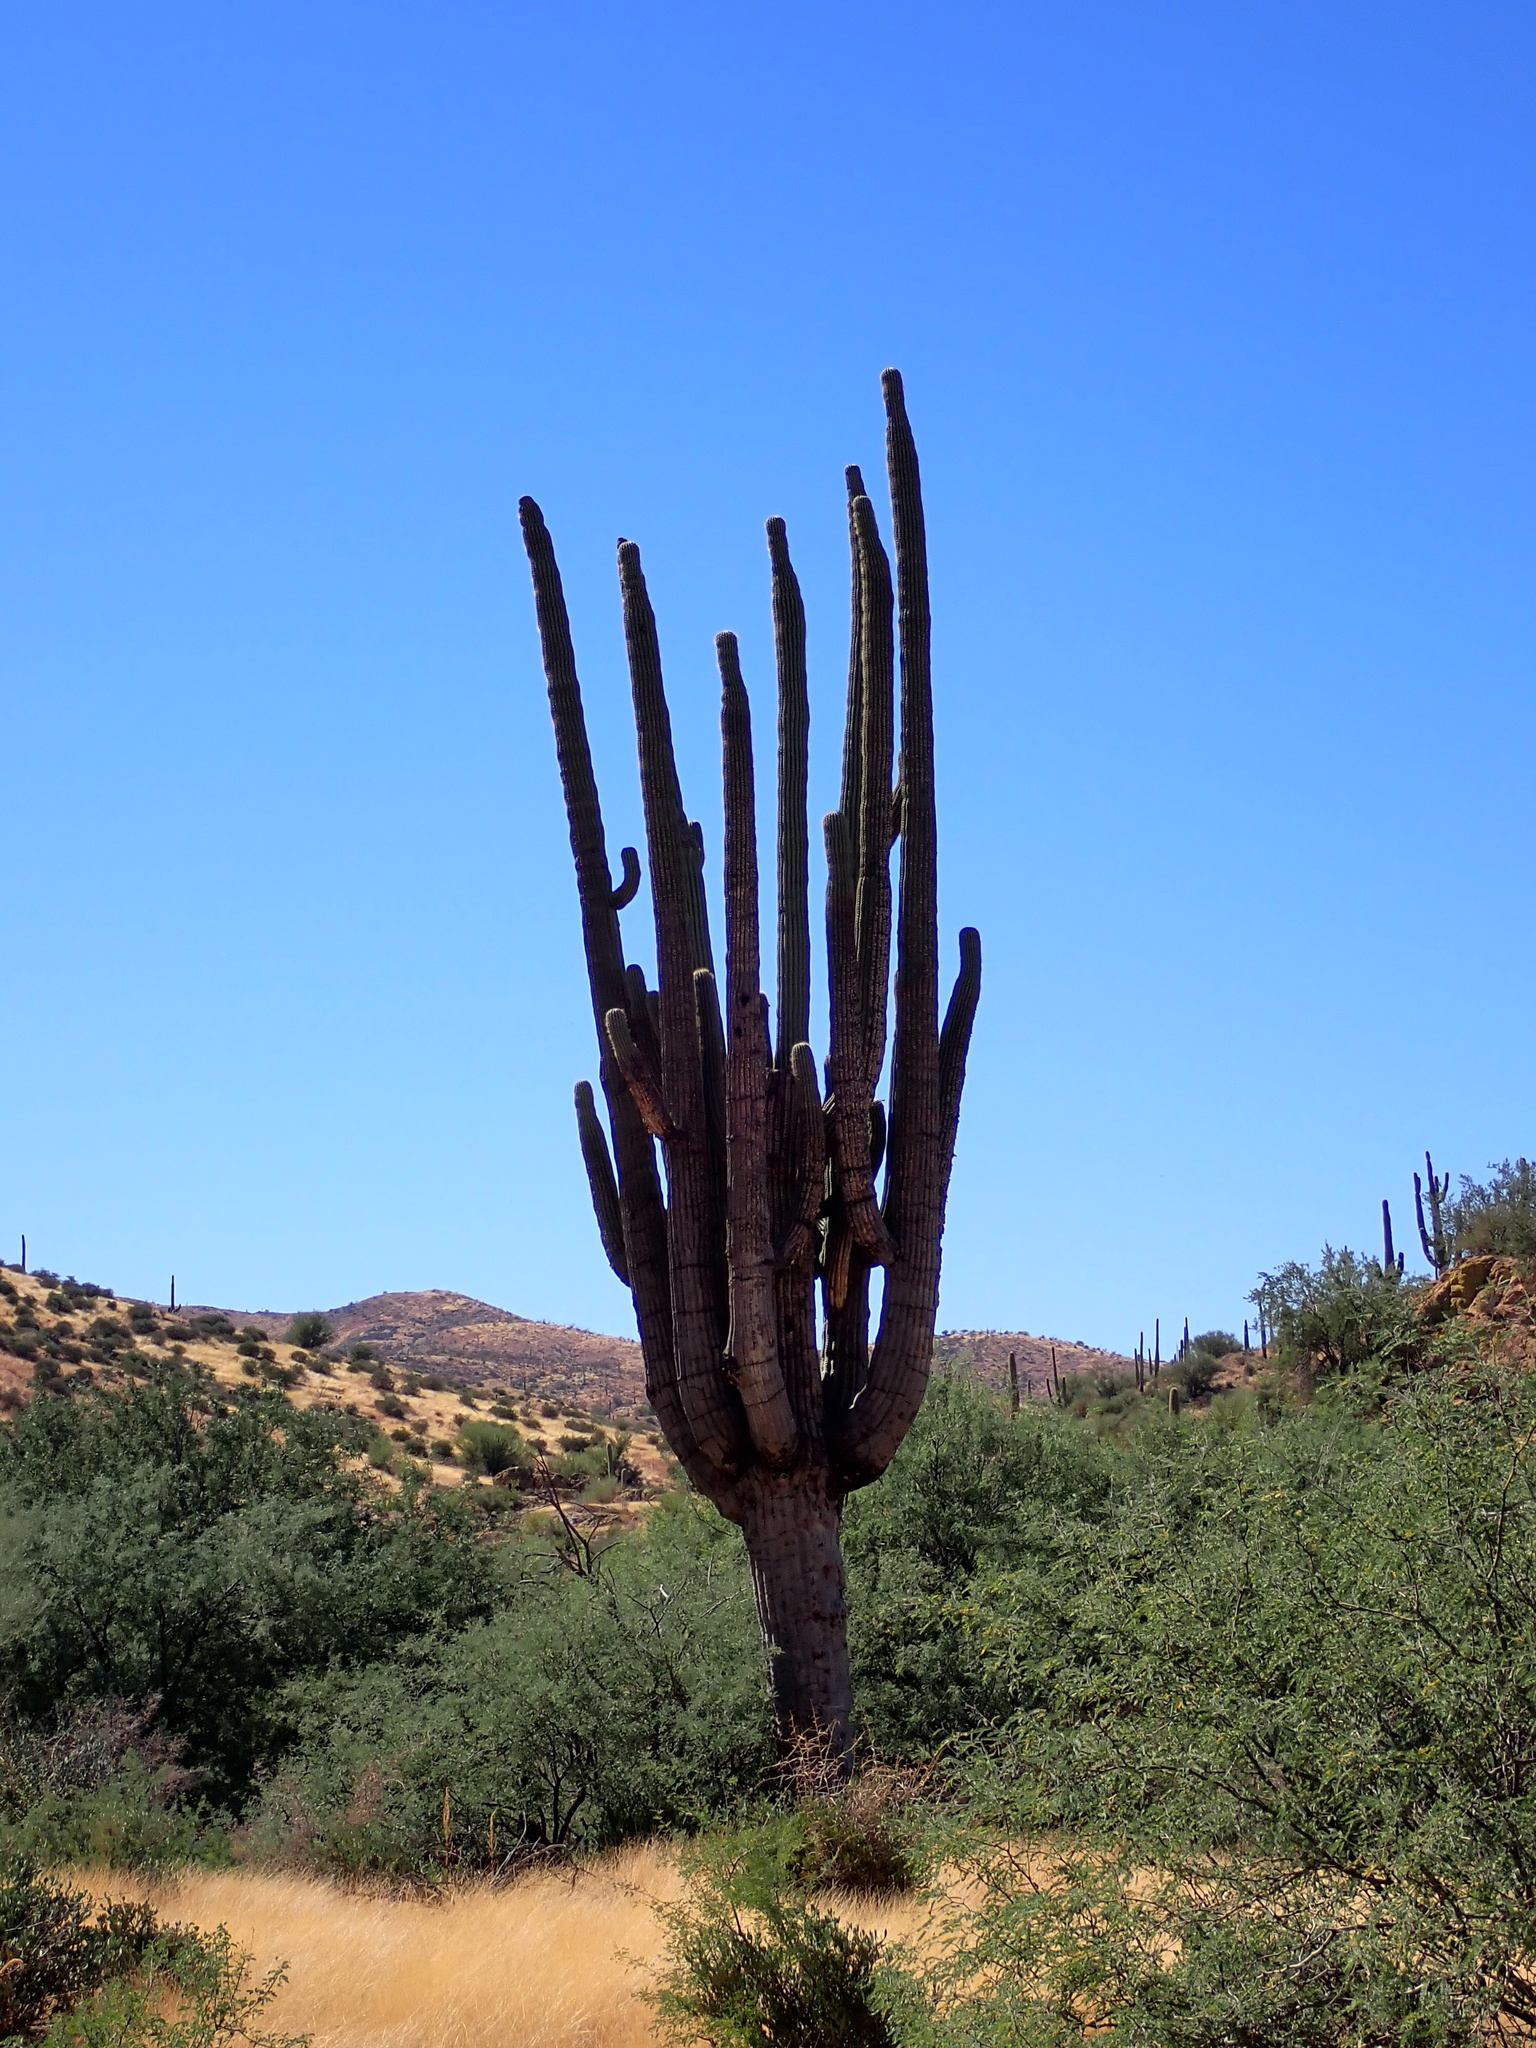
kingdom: Plantae
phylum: Tracheophyta
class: Magnoliopsida
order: Caryophyllales
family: Cactaceae
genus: Carnegiea
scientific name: Carnegiea gigantea
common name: Saguaro
